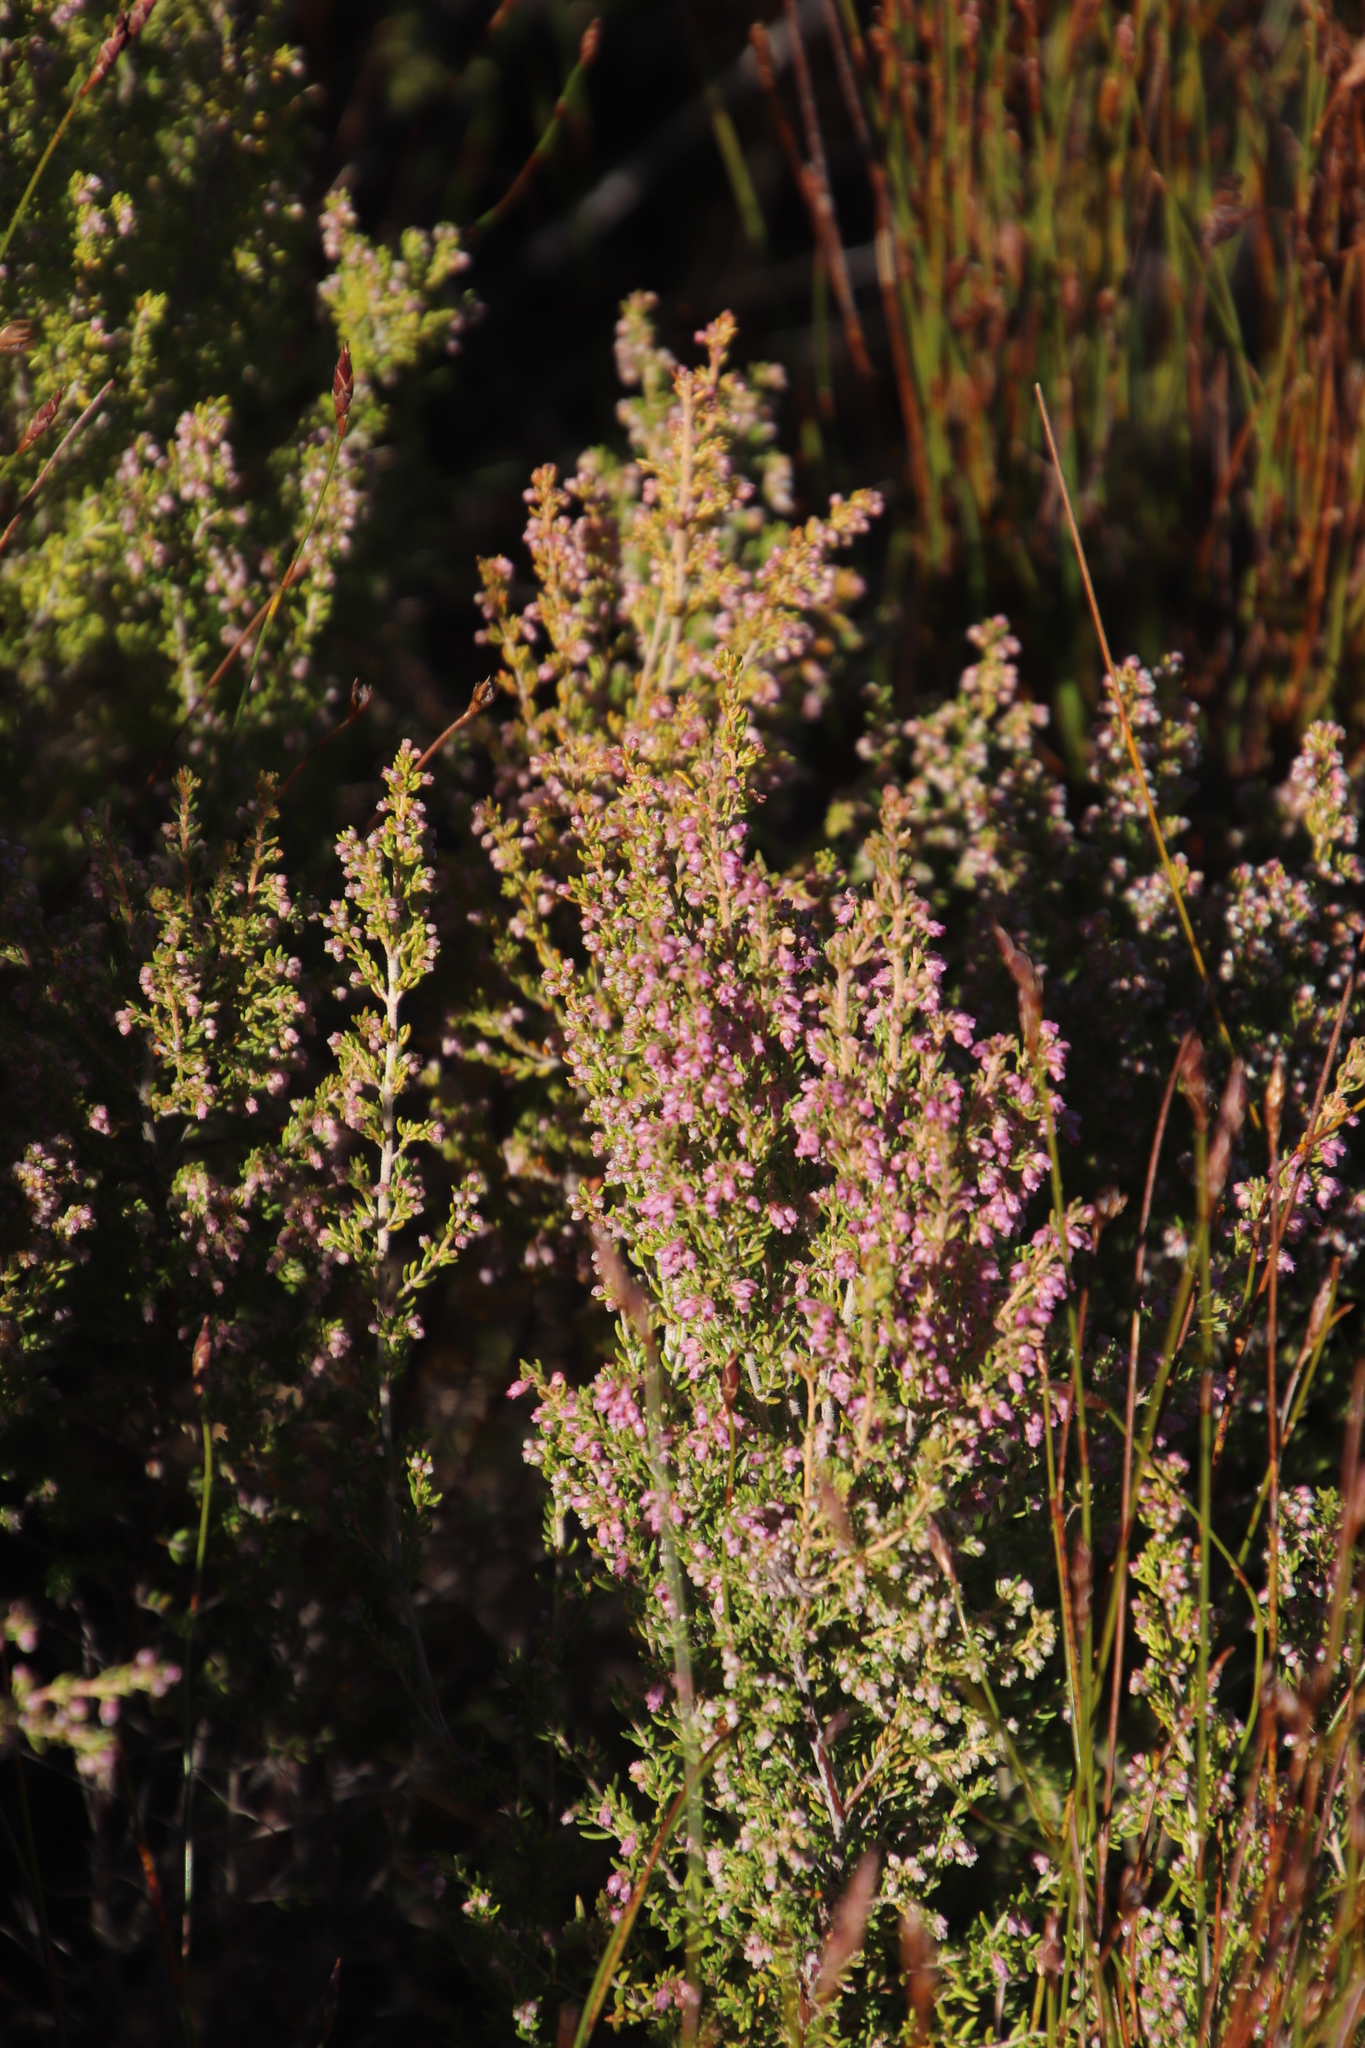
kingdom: Plantae
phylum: Tracheophyta
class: Magnoliopsida
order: Ericales
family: Ericaceae
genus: Erica
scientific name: Erica hispidula
